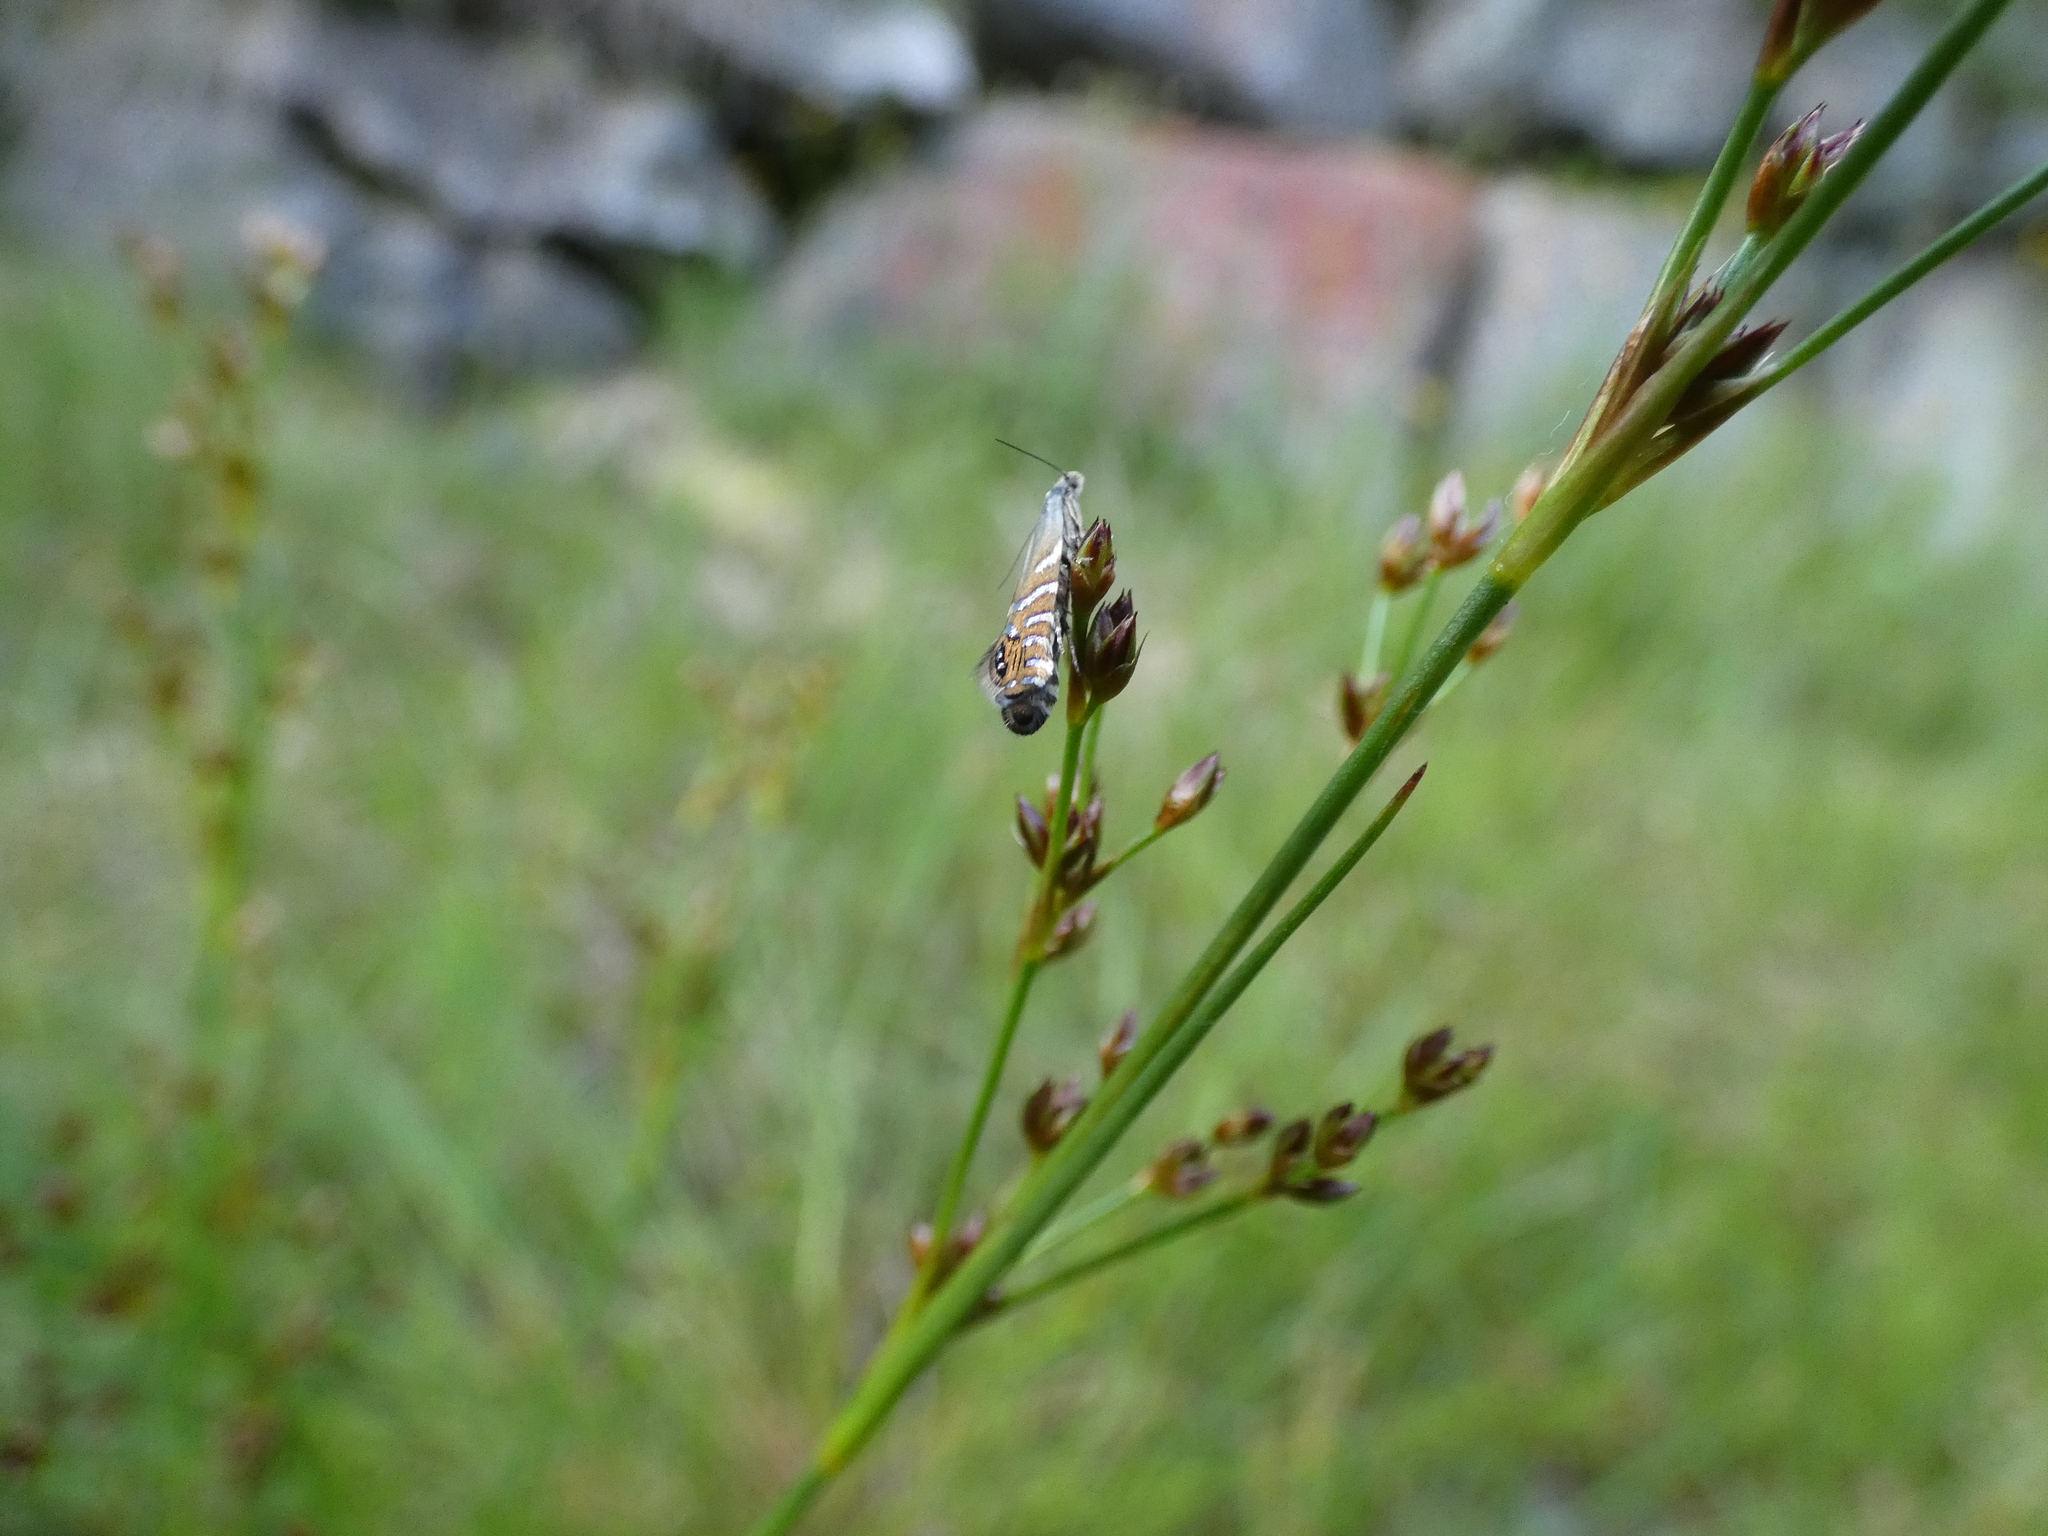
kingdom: Animalia
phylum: Arthropoda
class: Insecta
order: Lepidoptera
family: Glyphipterigidae
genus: Glyphipterix
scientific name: Glyphipterix thrasonella
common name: Speckled fanner
